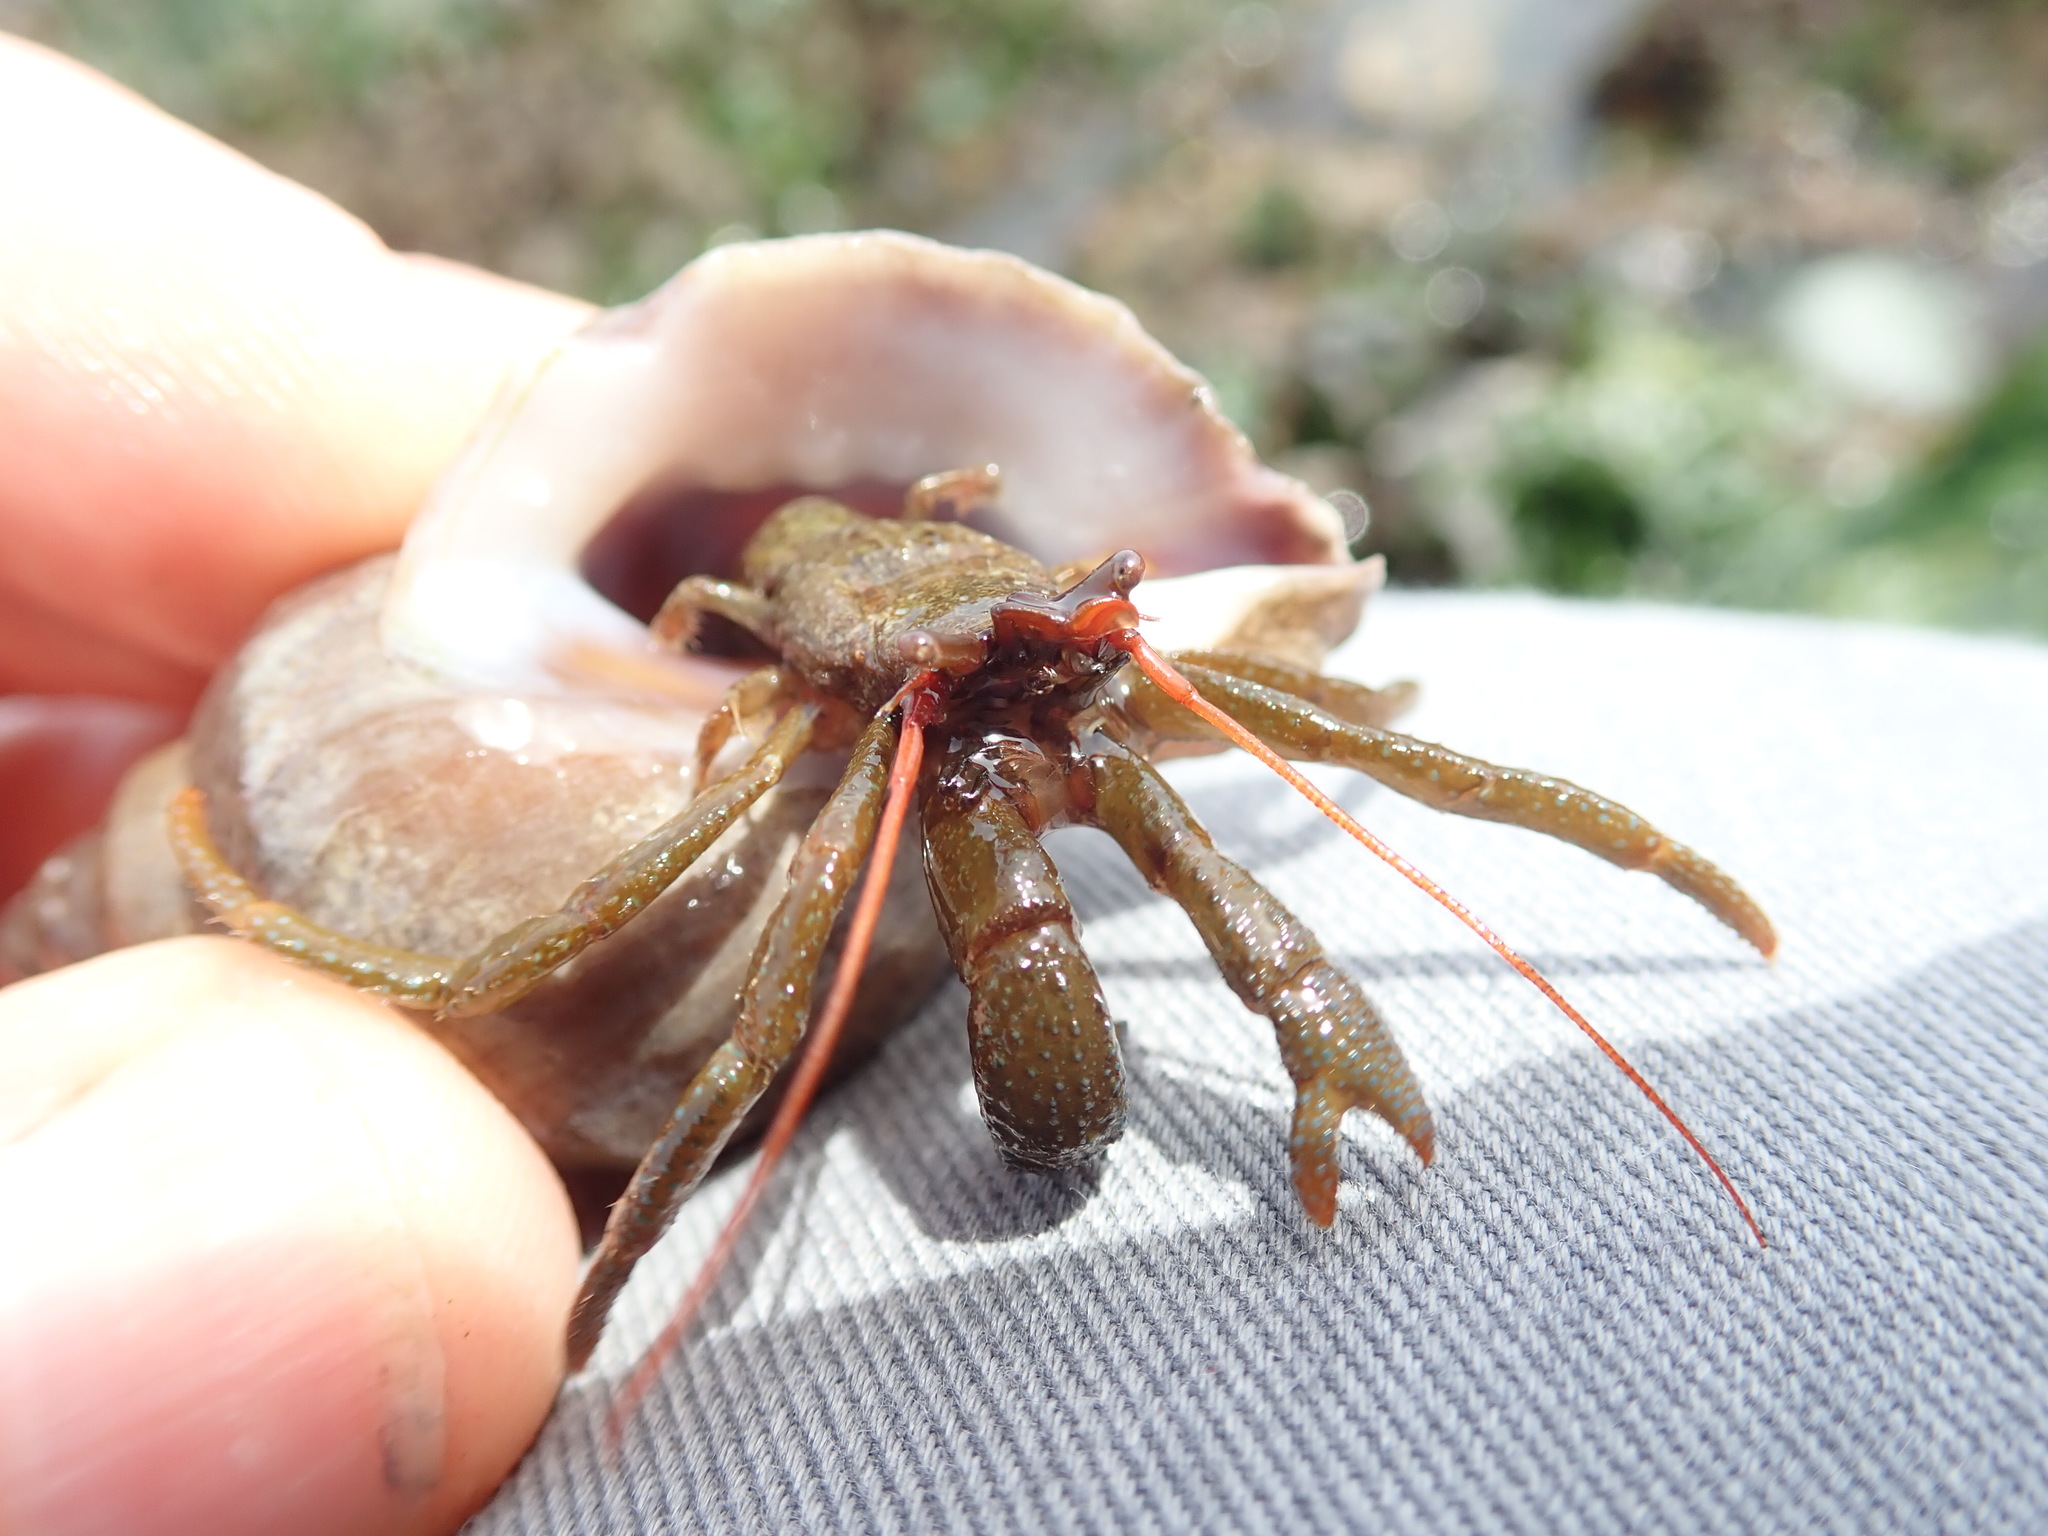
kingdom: Animalia
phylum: Arthropoda
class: Malacostraca
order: Decapoda
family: Paguridae
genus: Pagurus
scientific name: Pagurus granosimanus
